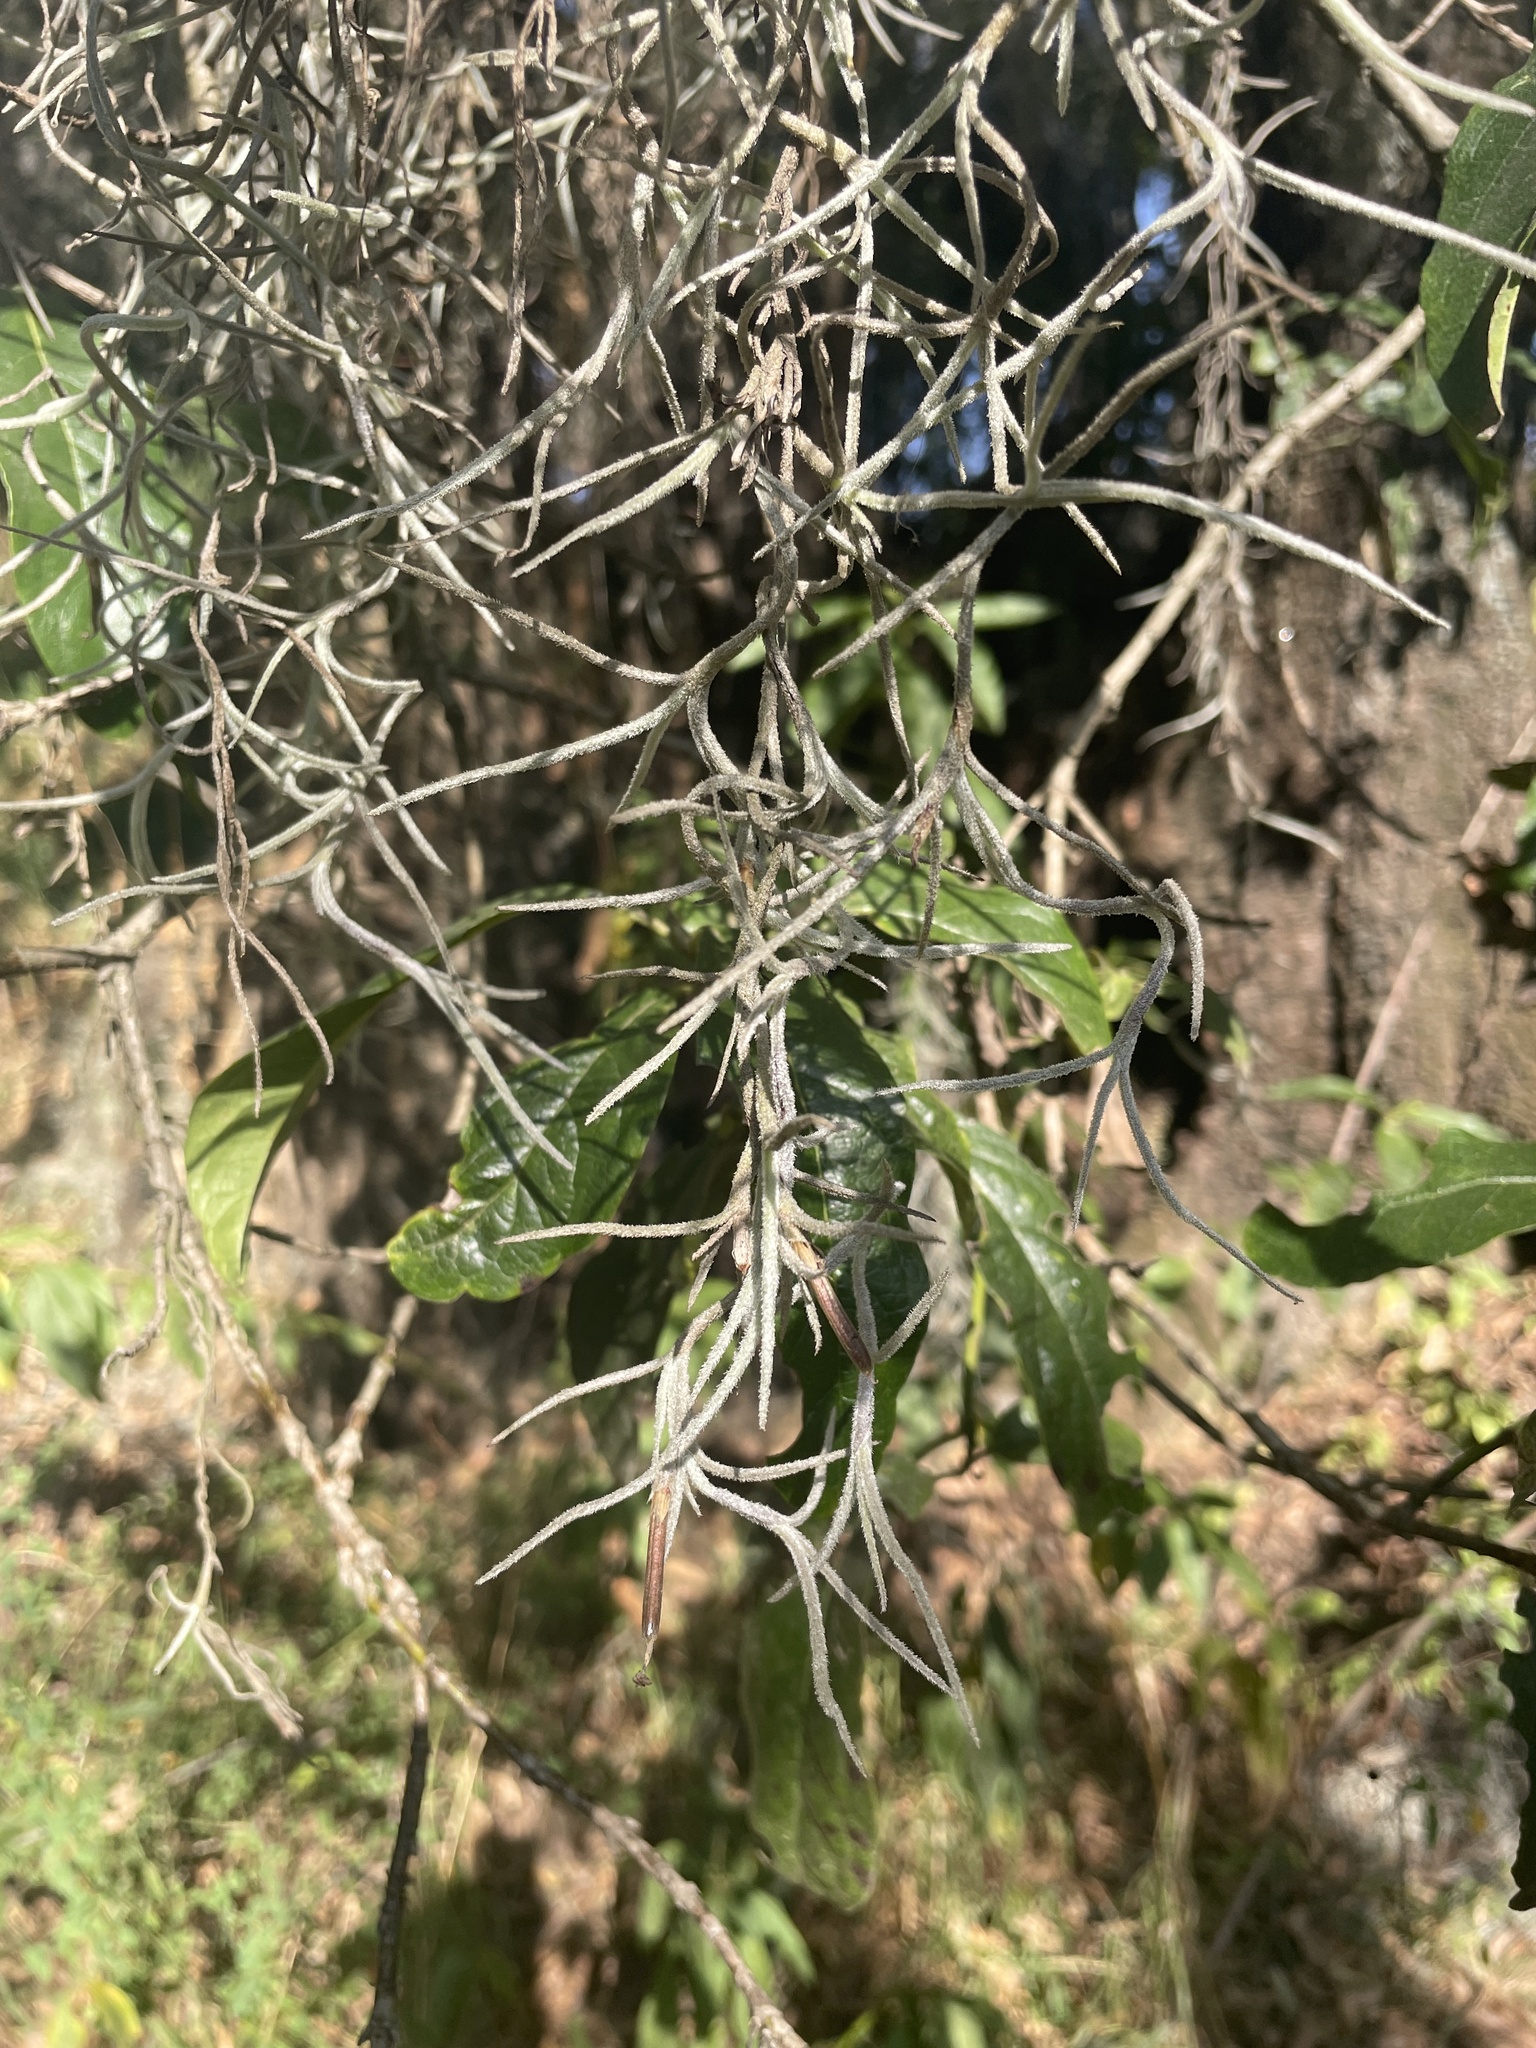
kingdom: Plantae
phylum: Tracheophyta
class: Liliopsida
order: Poales
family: Bromeliaceae
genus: Tillandsia
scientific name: Tillandsia usneoides
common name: Spanish moss
